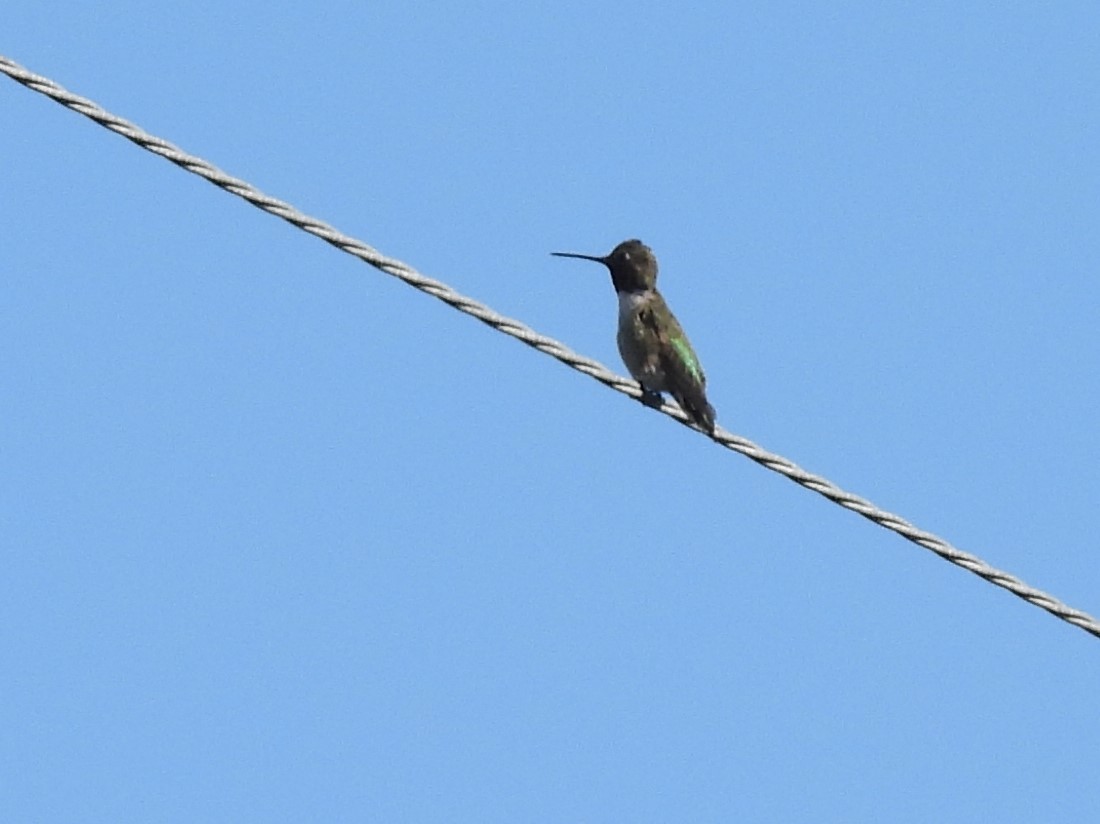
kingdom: Animalia
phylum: Chordata
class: Aves
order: Apodiformes
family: Trochilidae
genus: Calypte
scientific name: Calypte anna
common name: Anna's hummingbird
